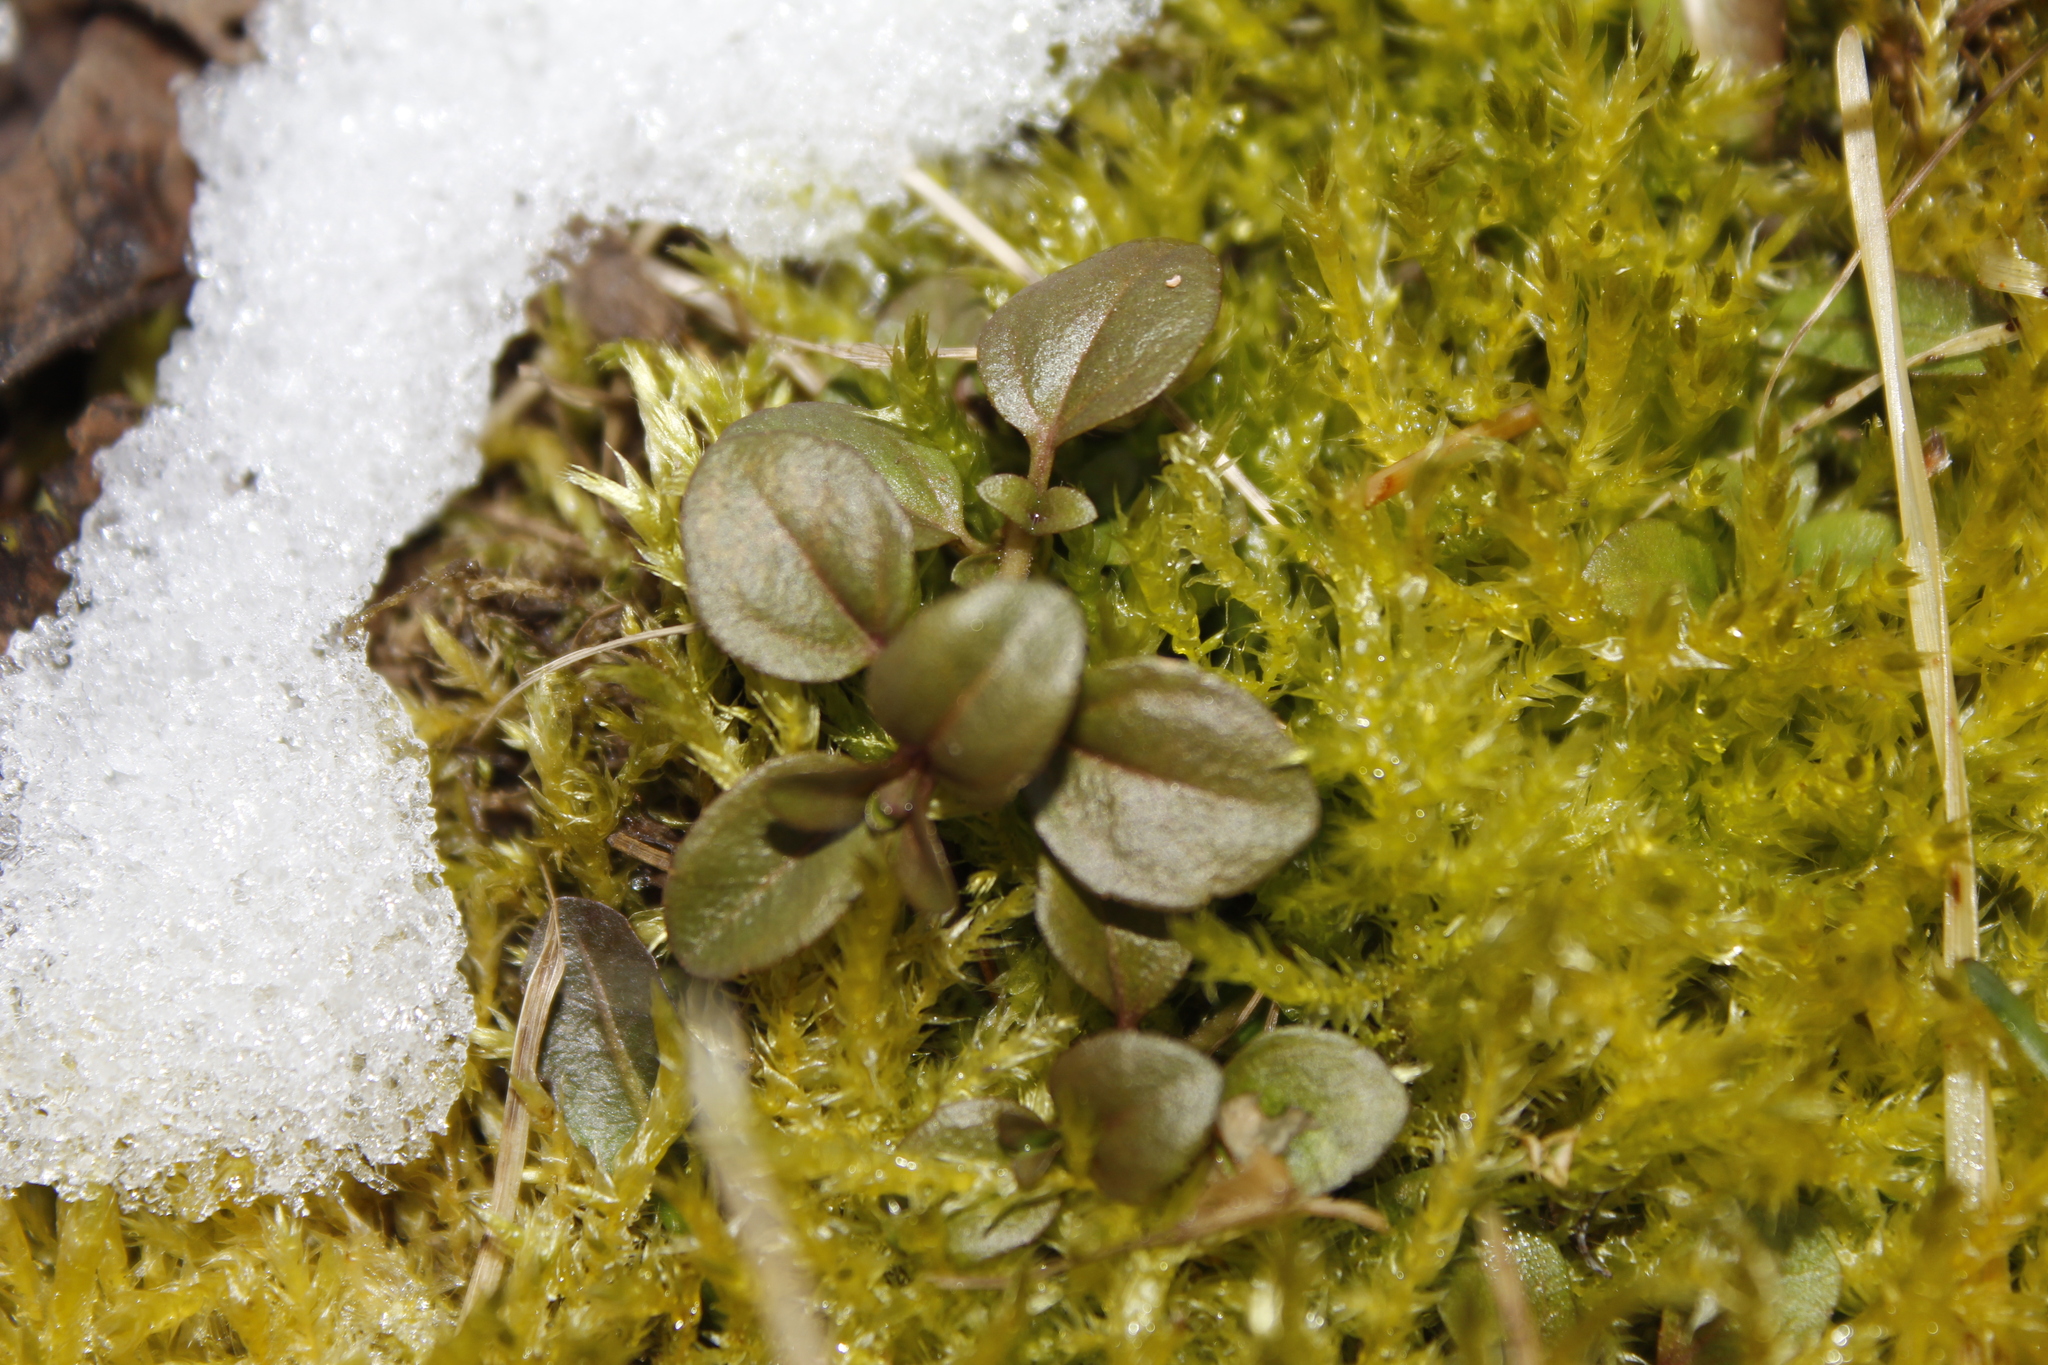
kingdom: Plantae
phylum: Tracheophyta
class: Magnoliopsida
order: Lamiales
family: Plantaginaceae
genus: Veronica
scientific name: Veronica serpyllifolia
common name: Thyme-leaved speedwell
